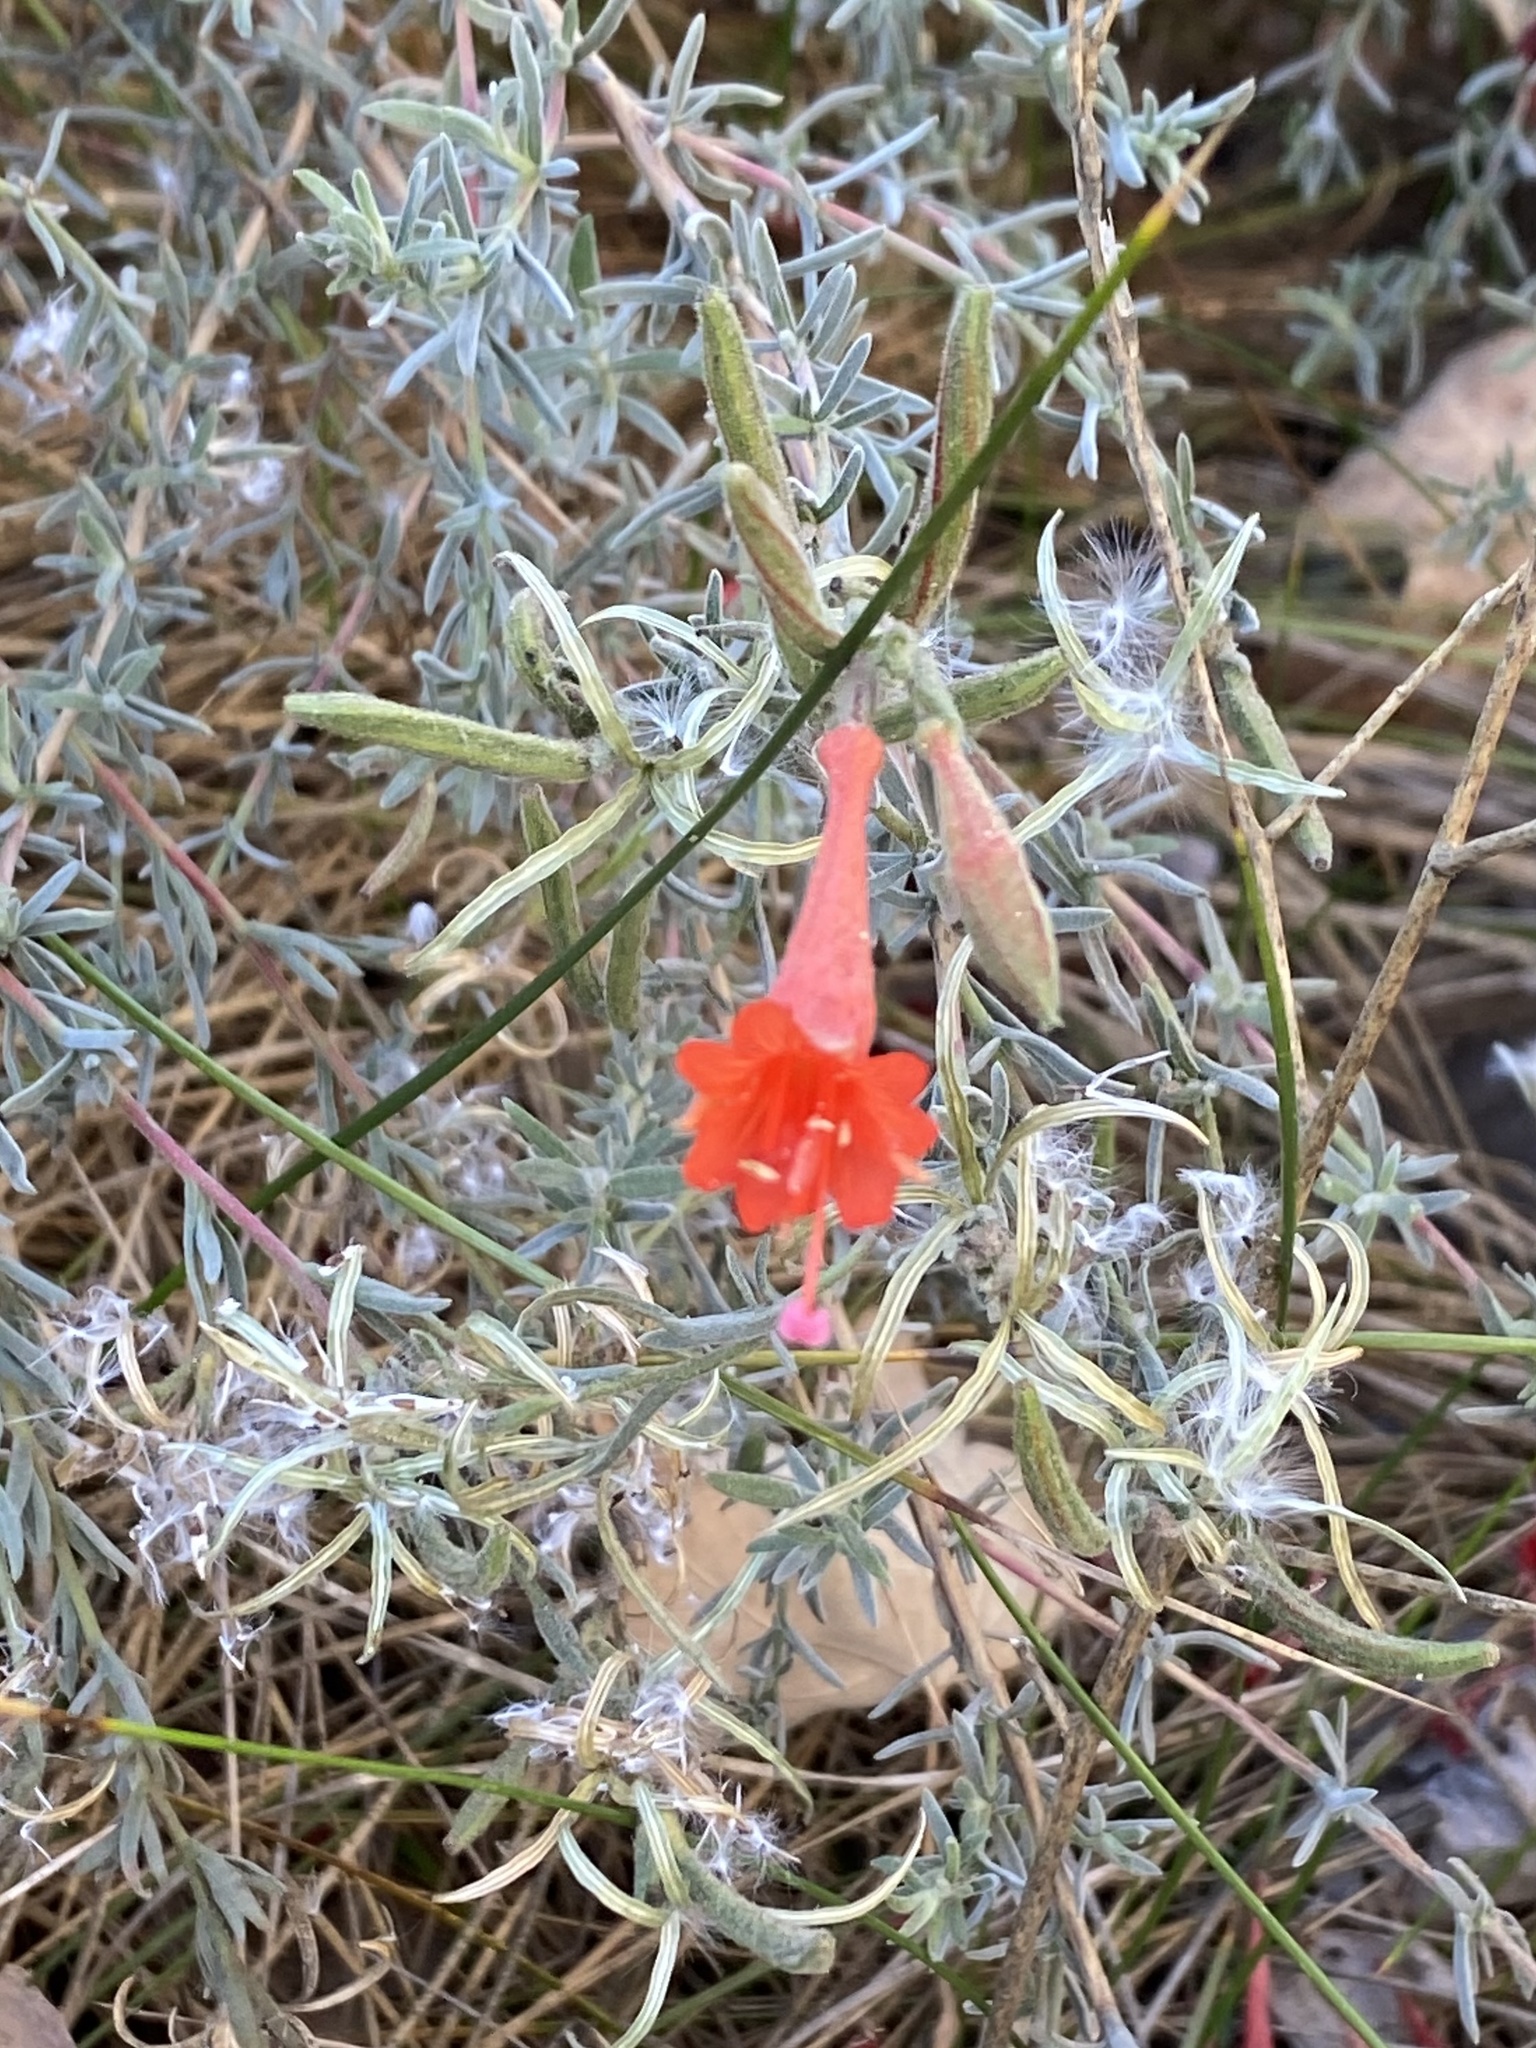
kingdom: Plantae
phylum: Tracheophyta
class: Magnoliopsida
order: Myrtales
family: Onagraceae
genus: Epilobium
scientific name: Epilobium canum
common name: California-fuchsia
